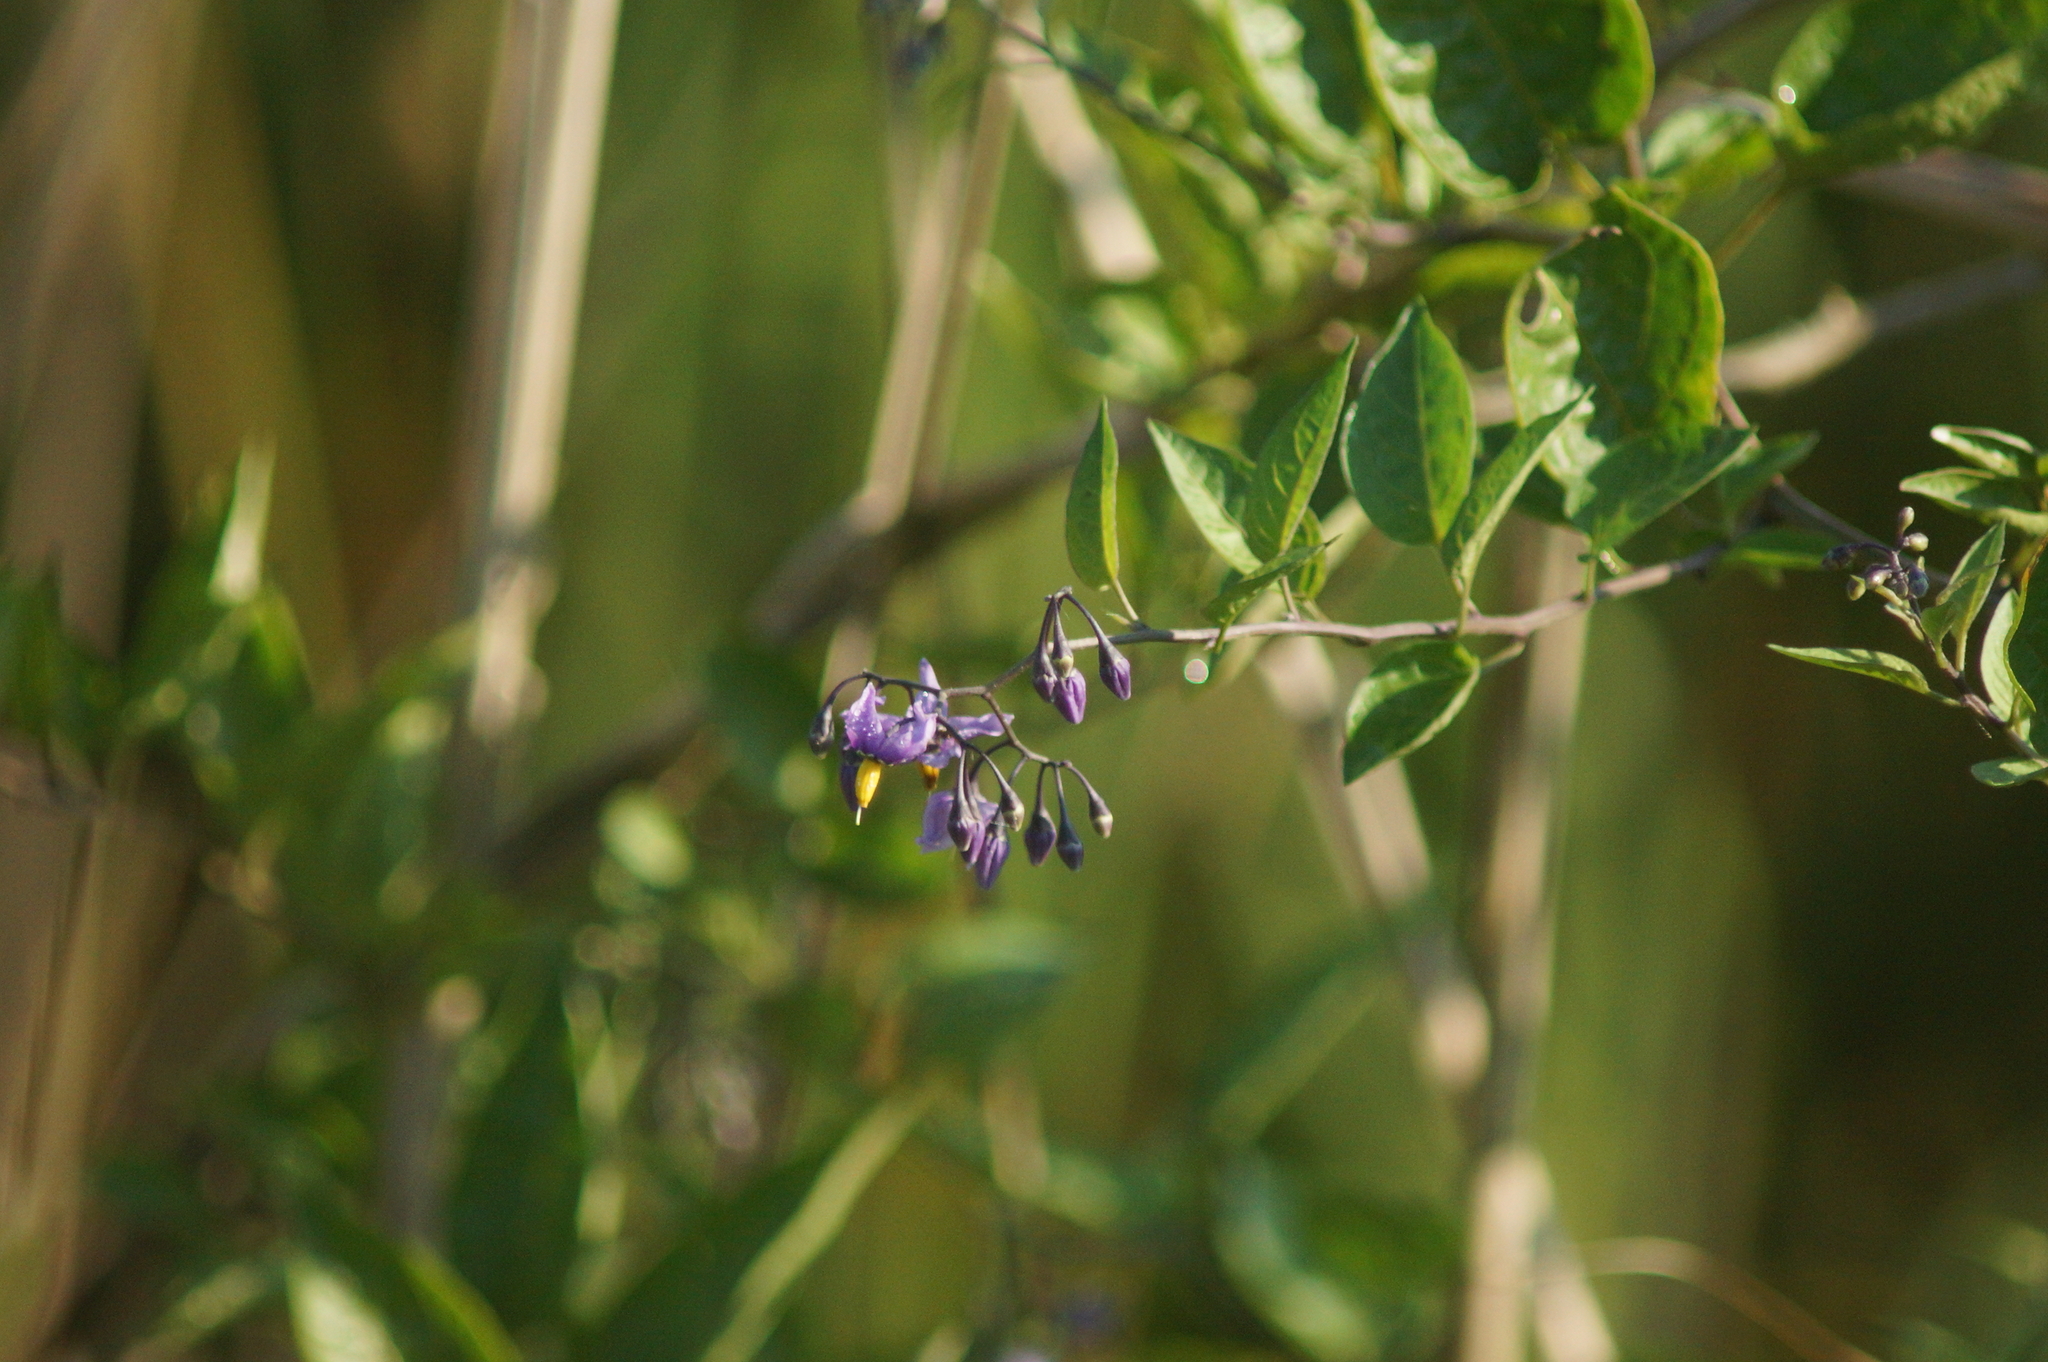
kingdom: Plantae
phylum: Tracheophyta
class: Magnoliopsida
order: Solanales
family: Solanaceae
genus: Solanum
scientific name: Solanum dulcamara
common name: Climbing nightshade
